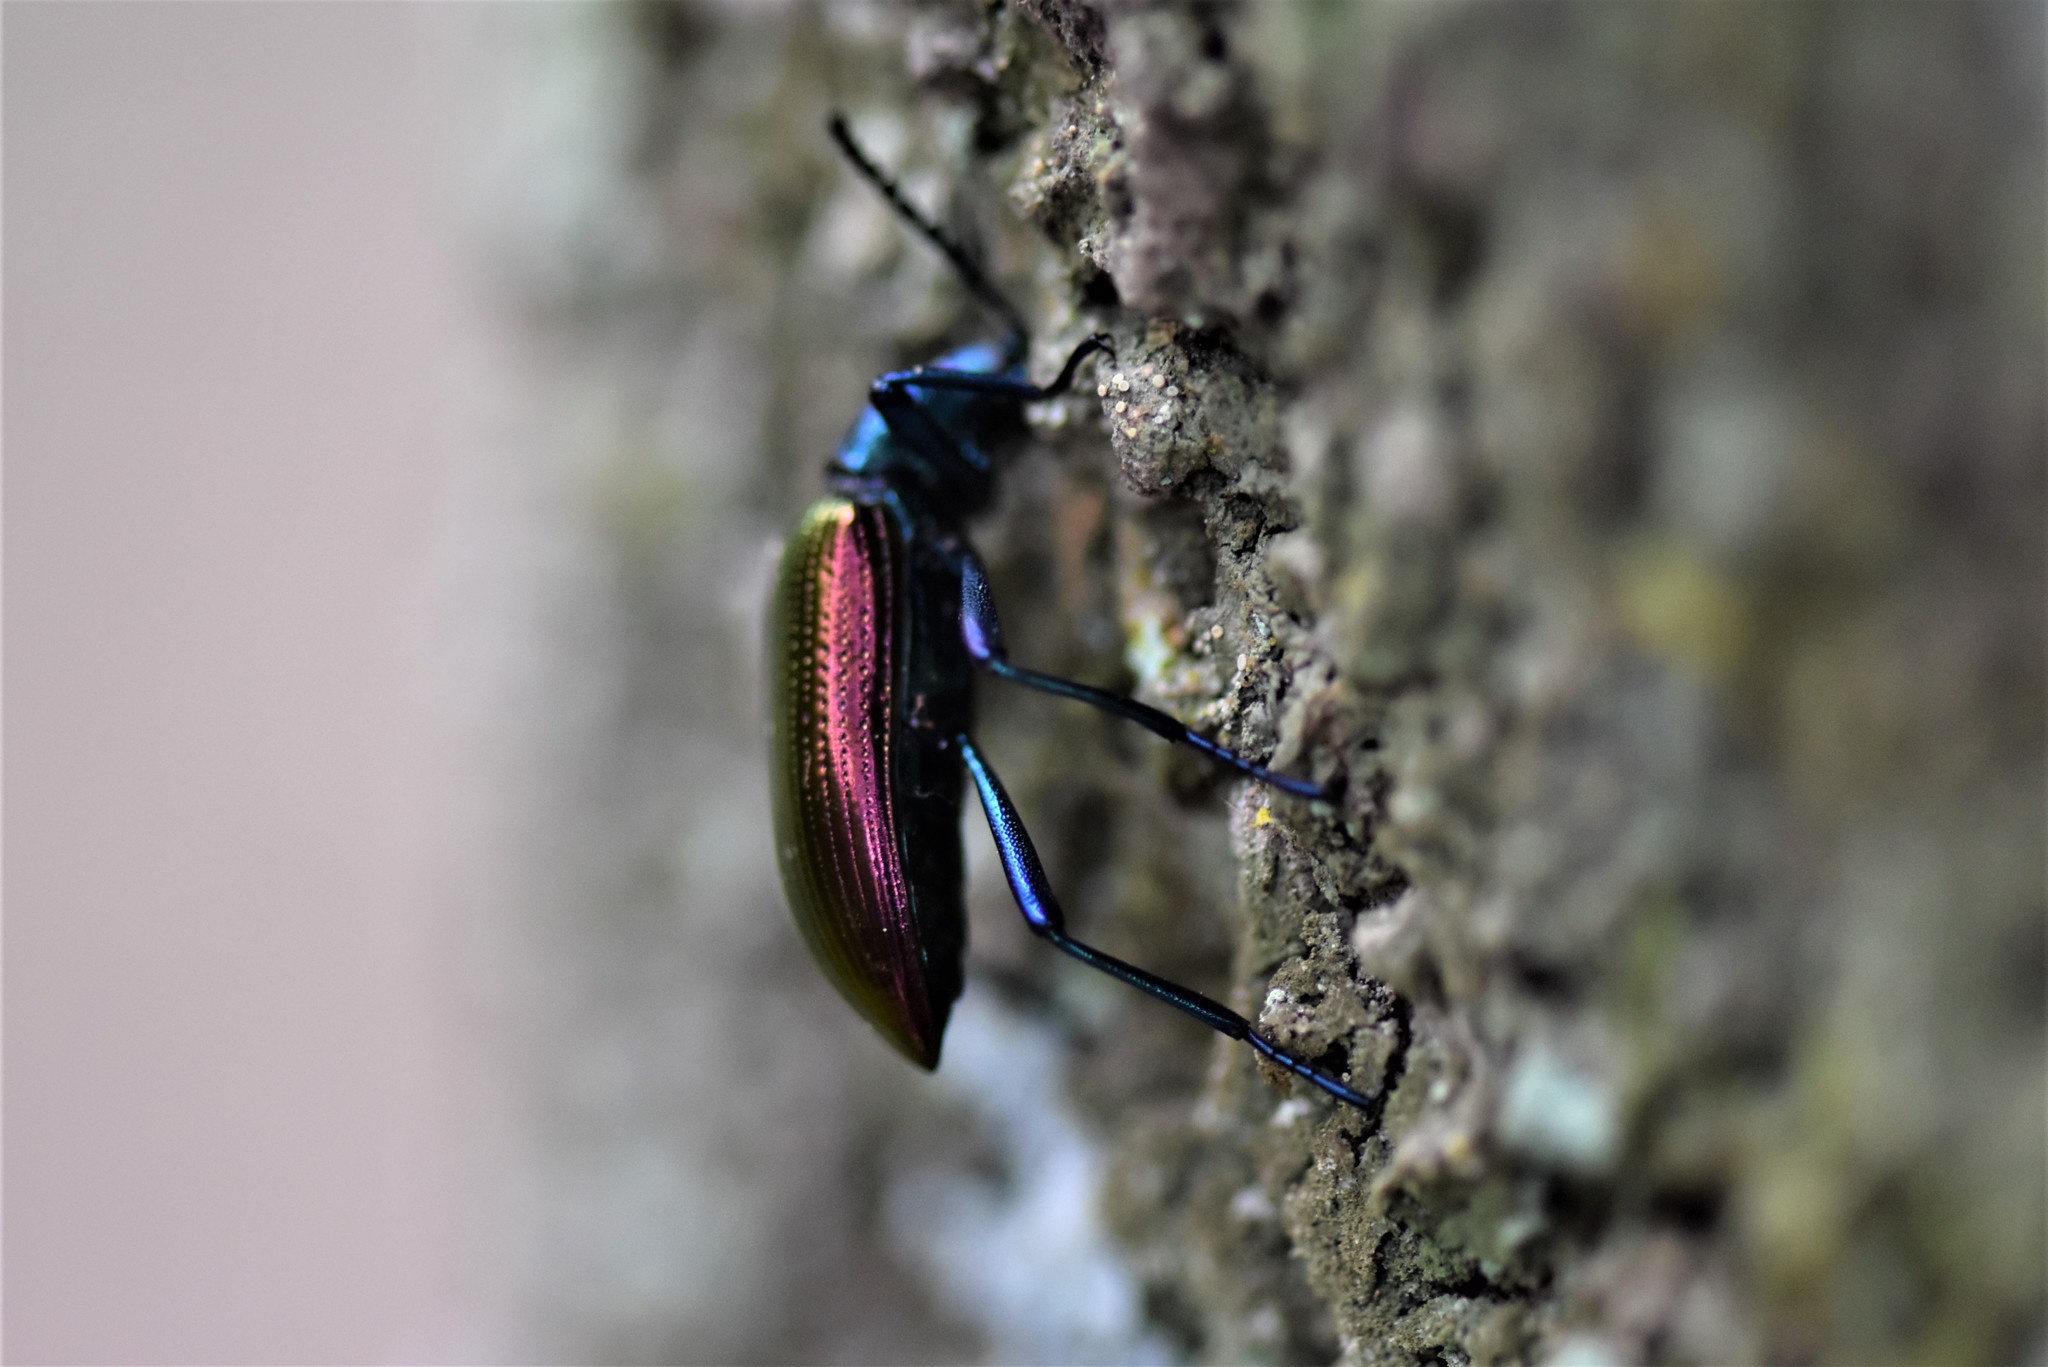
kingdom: Animalia
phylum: Arthropoda
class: Insecta
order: Coleoptera
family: Tenebrionidae
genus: Strongylium
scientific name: Strongylium
